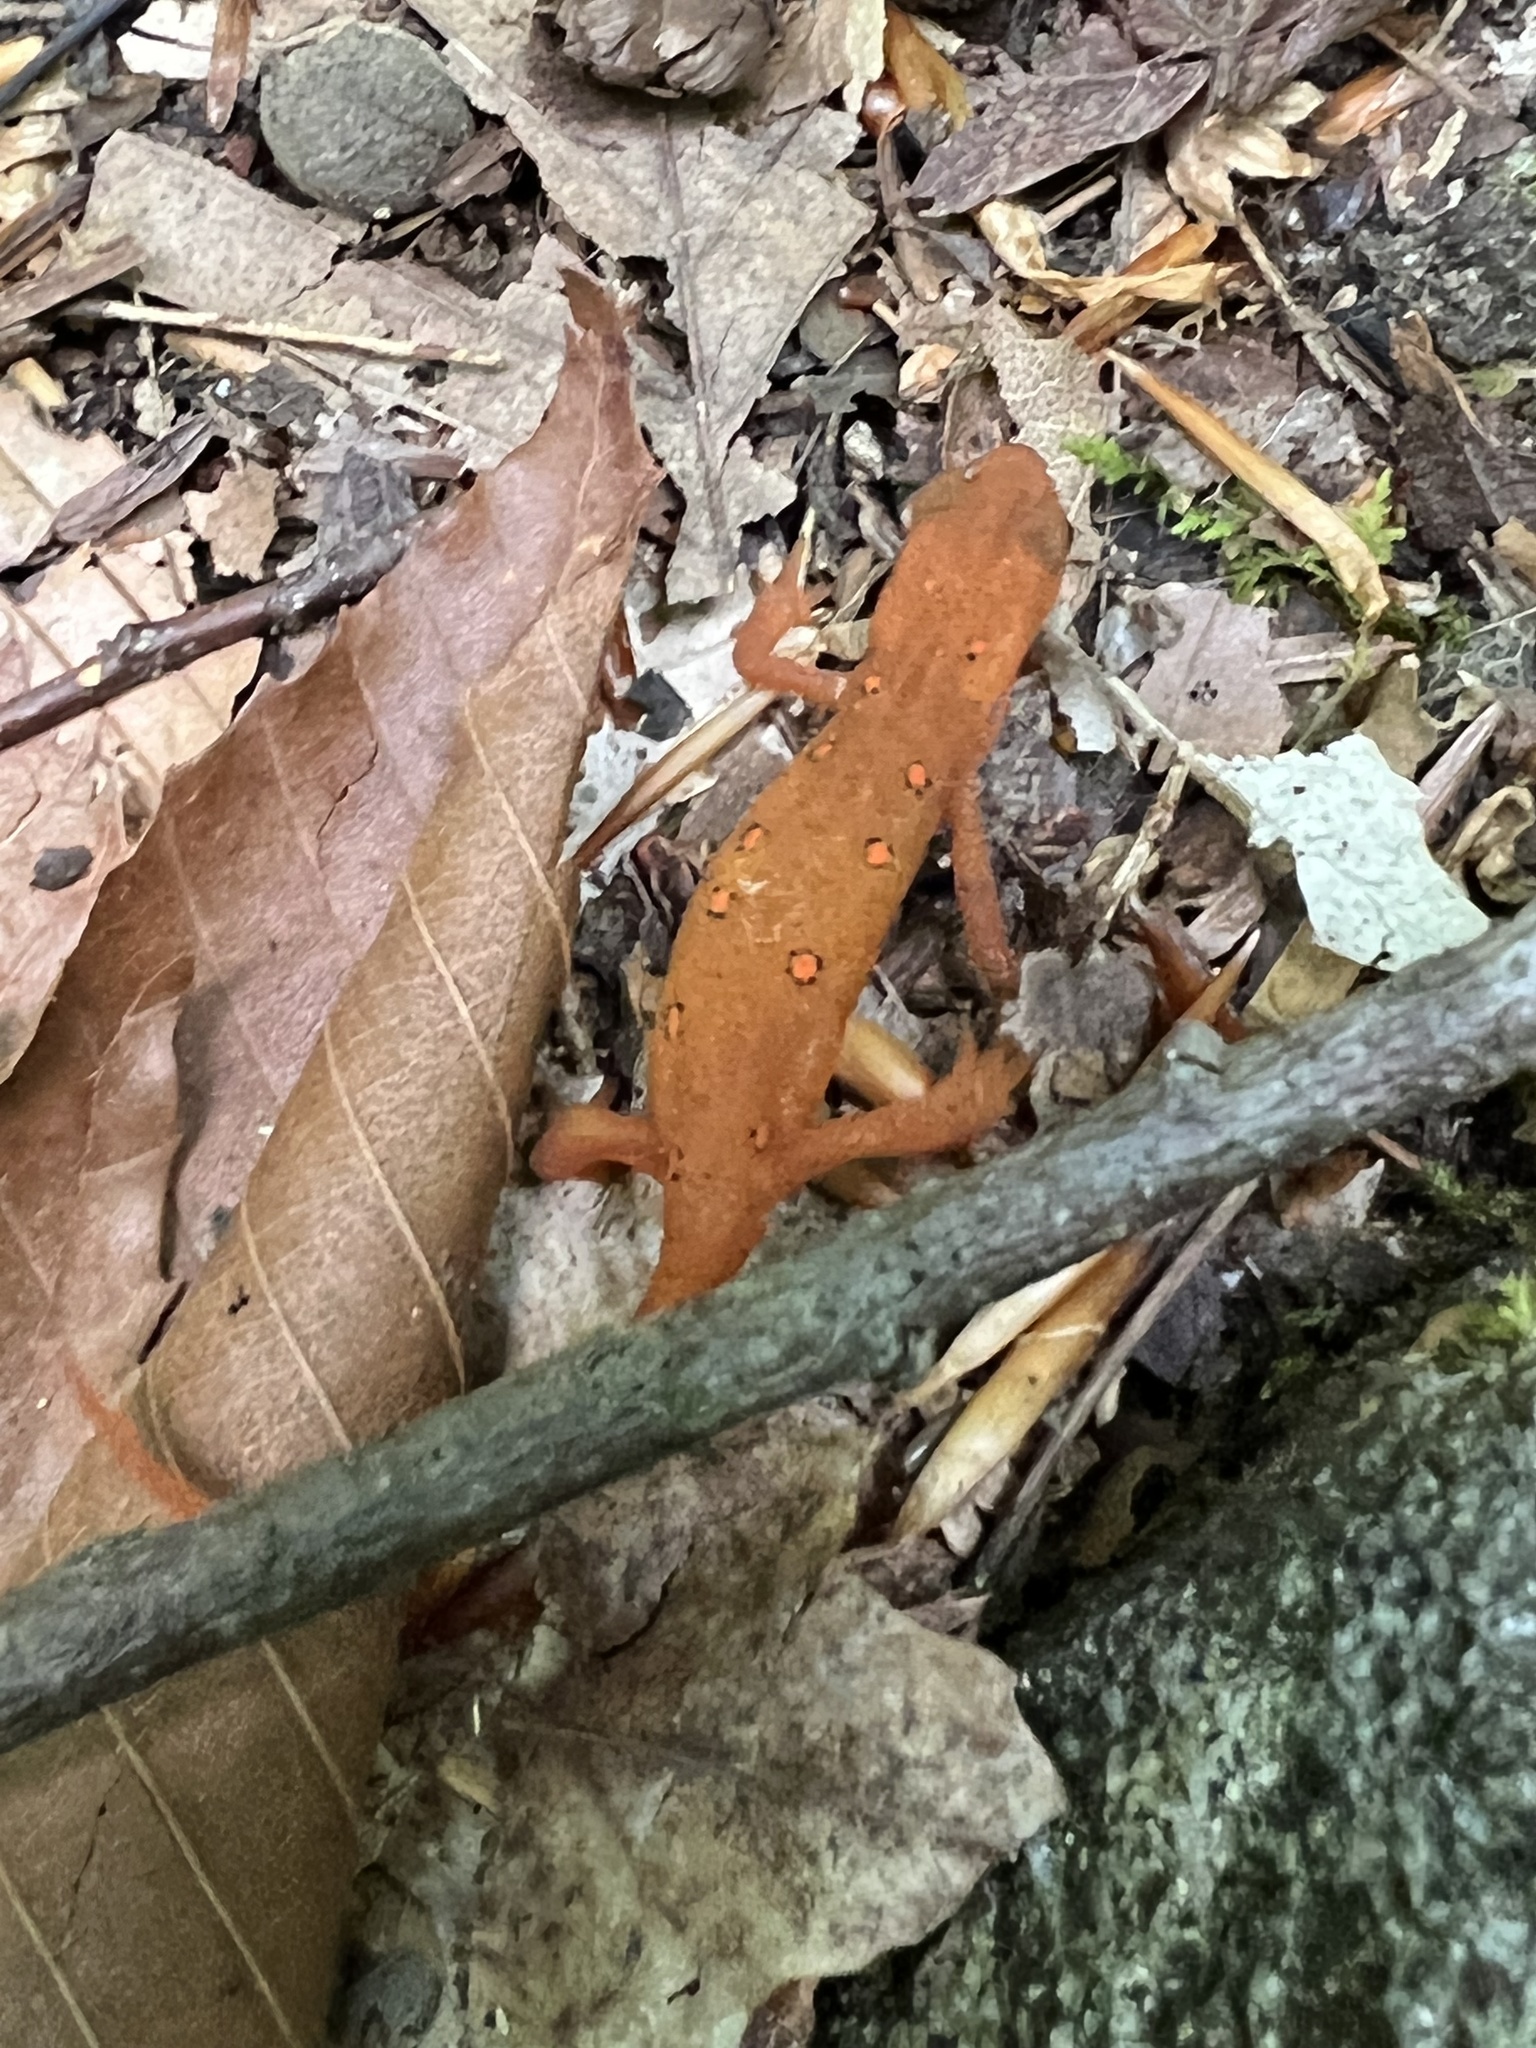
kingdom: Animalia
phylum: Chordata
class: Amphibia
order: Caudata
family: Salamandridae
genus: Notophthalmus
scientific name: Notophthalmus viridescens
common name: Eastern newt
